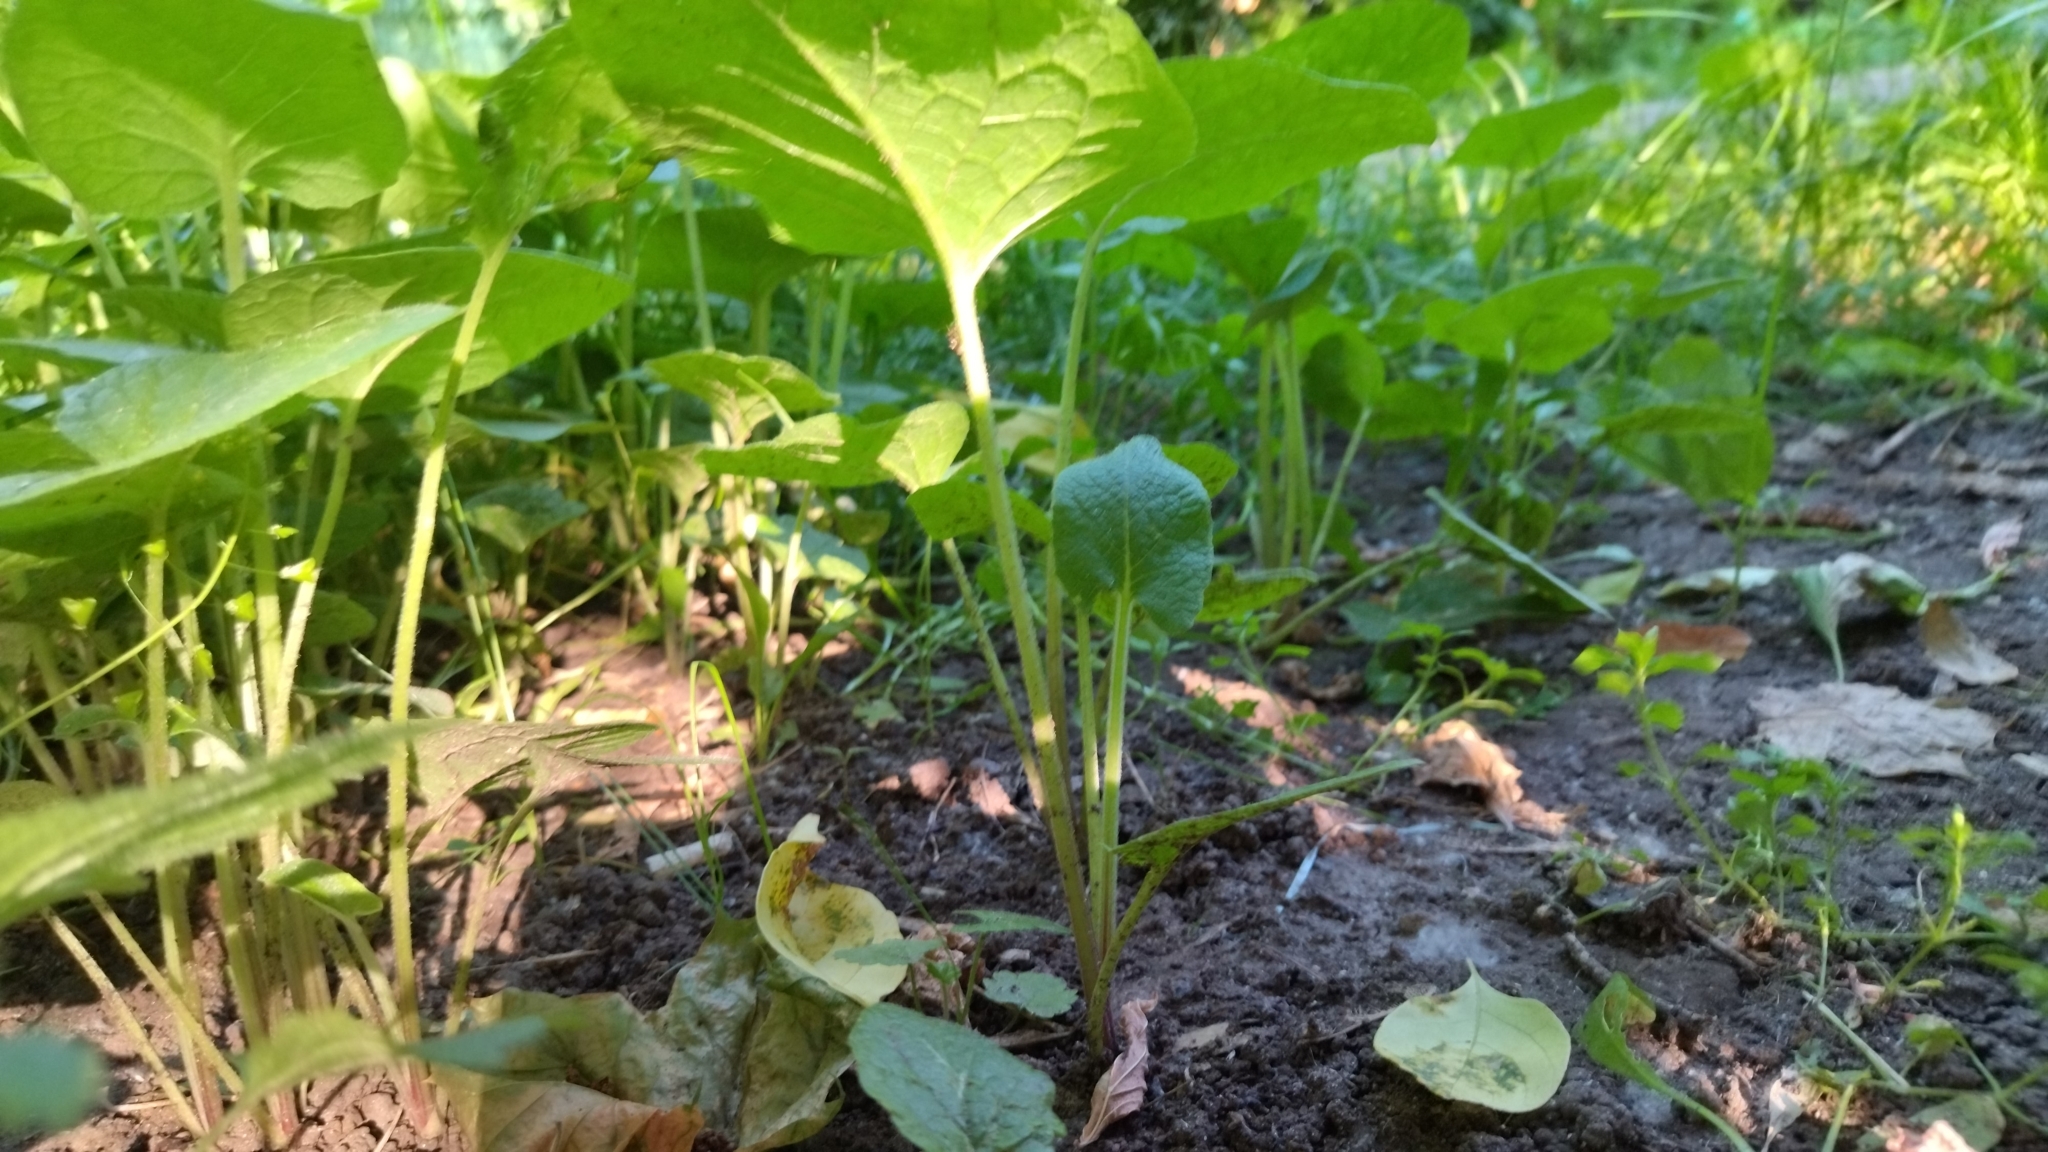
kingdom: Plantae
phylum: Tracheophyta
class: Magnoliopsida
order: Asterales
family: Asteraceae
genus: Arctium
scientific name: Arctium
